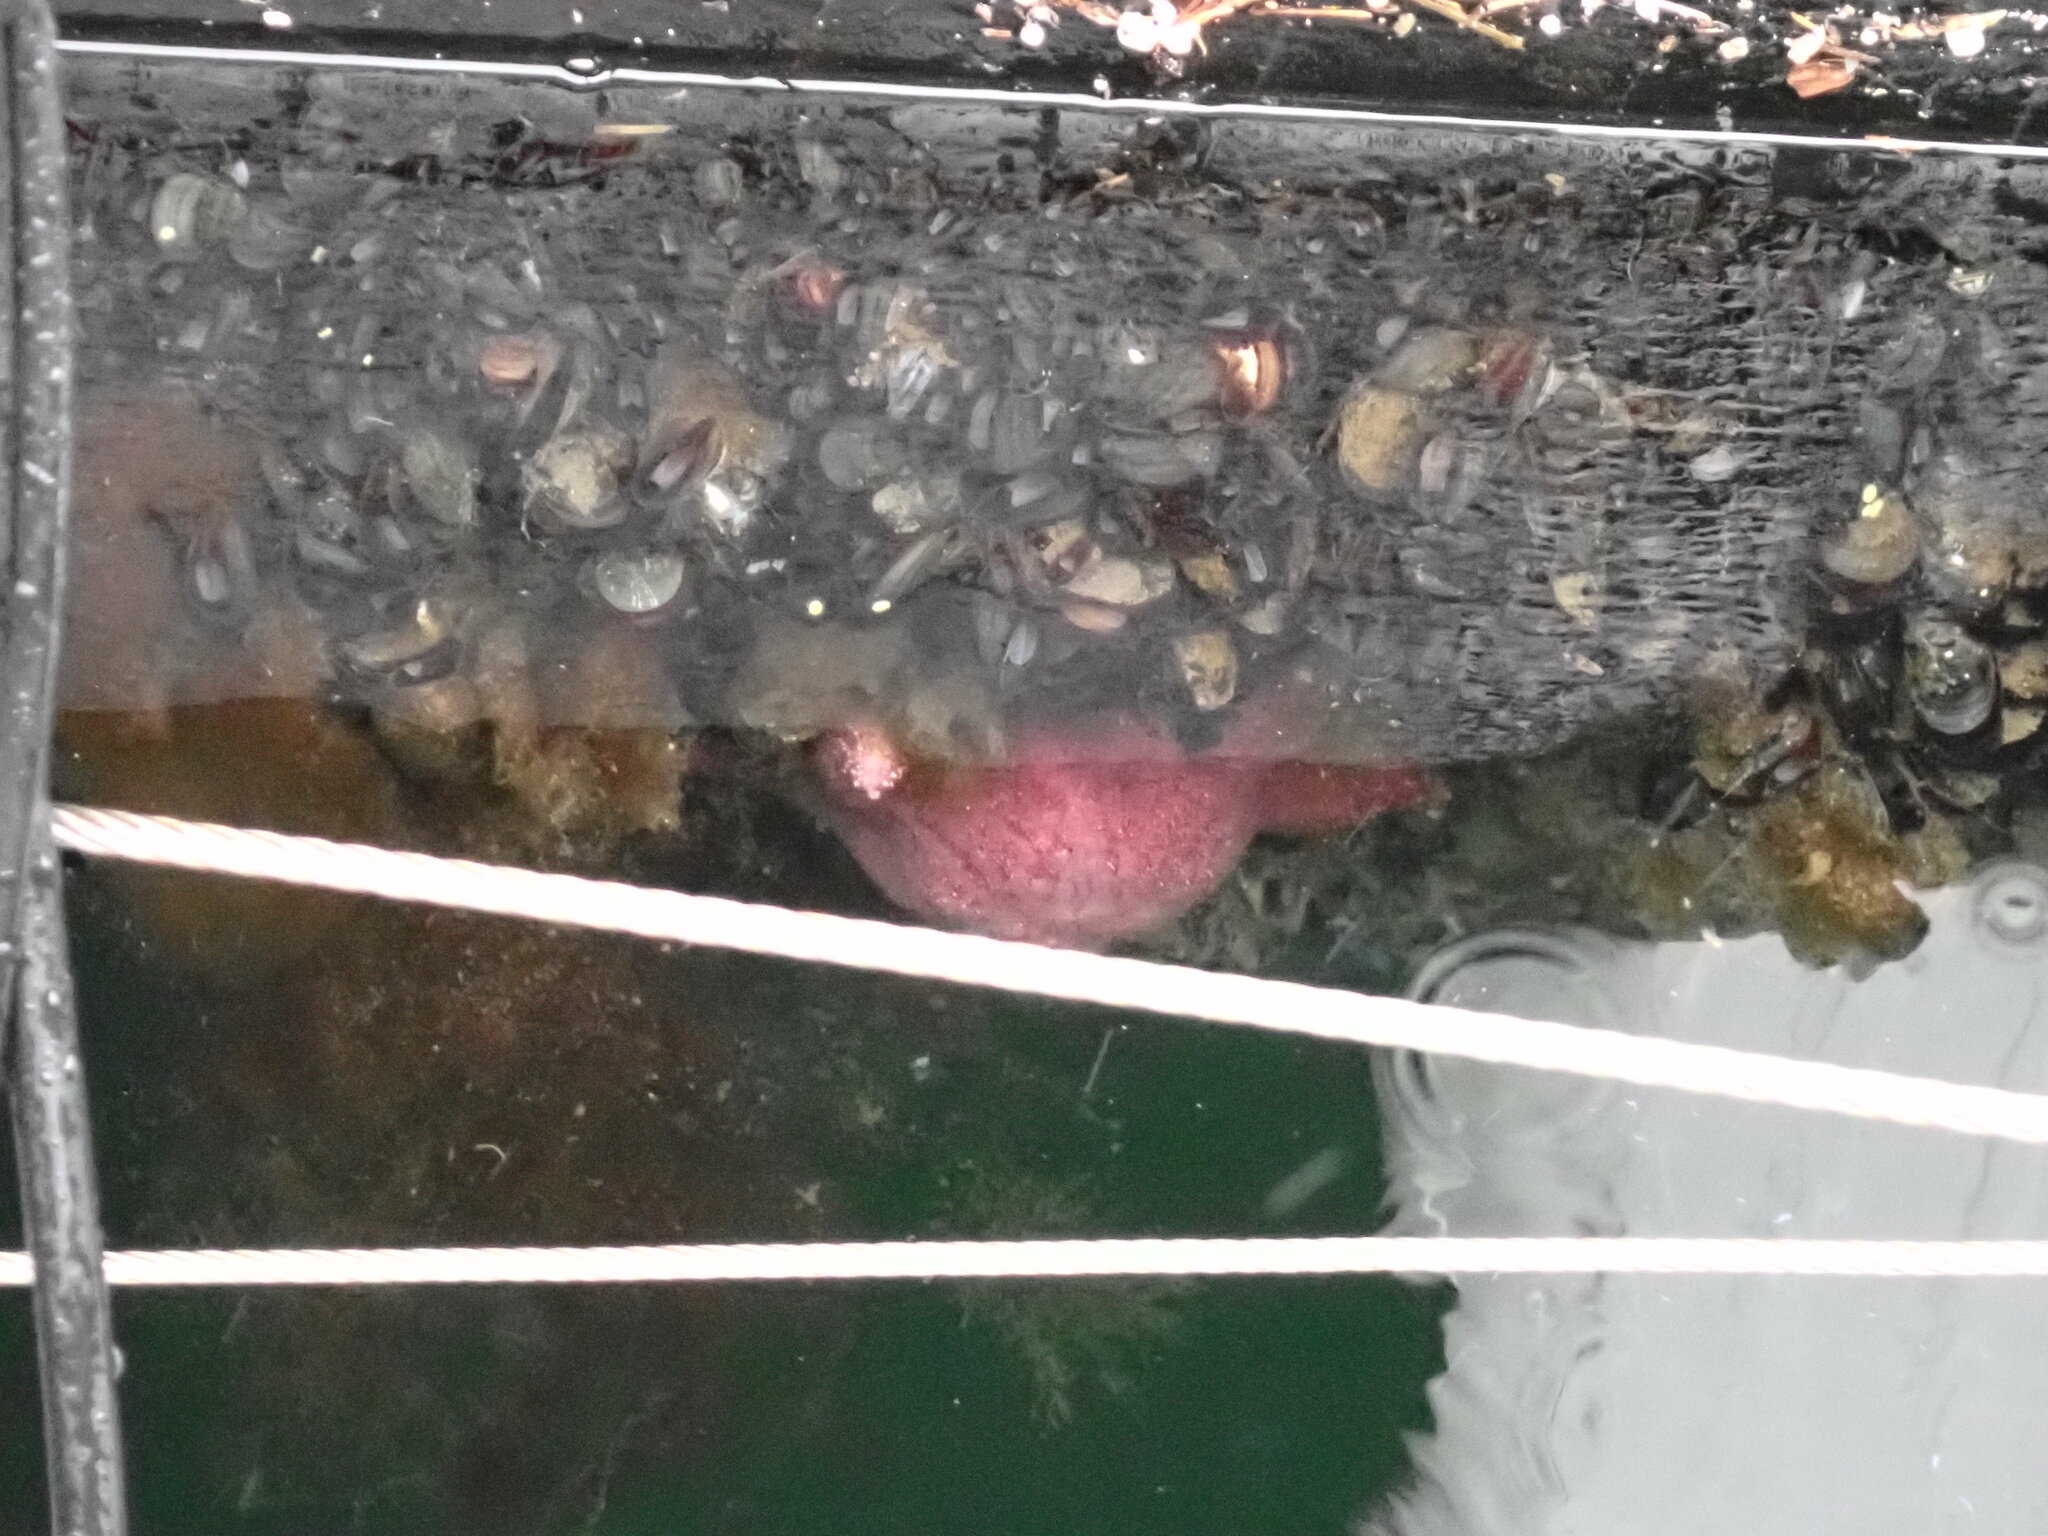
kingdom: Animalia
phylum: Echinodermata
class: Asteroidea
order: Forcipulatida
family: Asteriidae
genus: Pisaster
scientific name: Pisaster ochraceus
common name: Ochre stars
